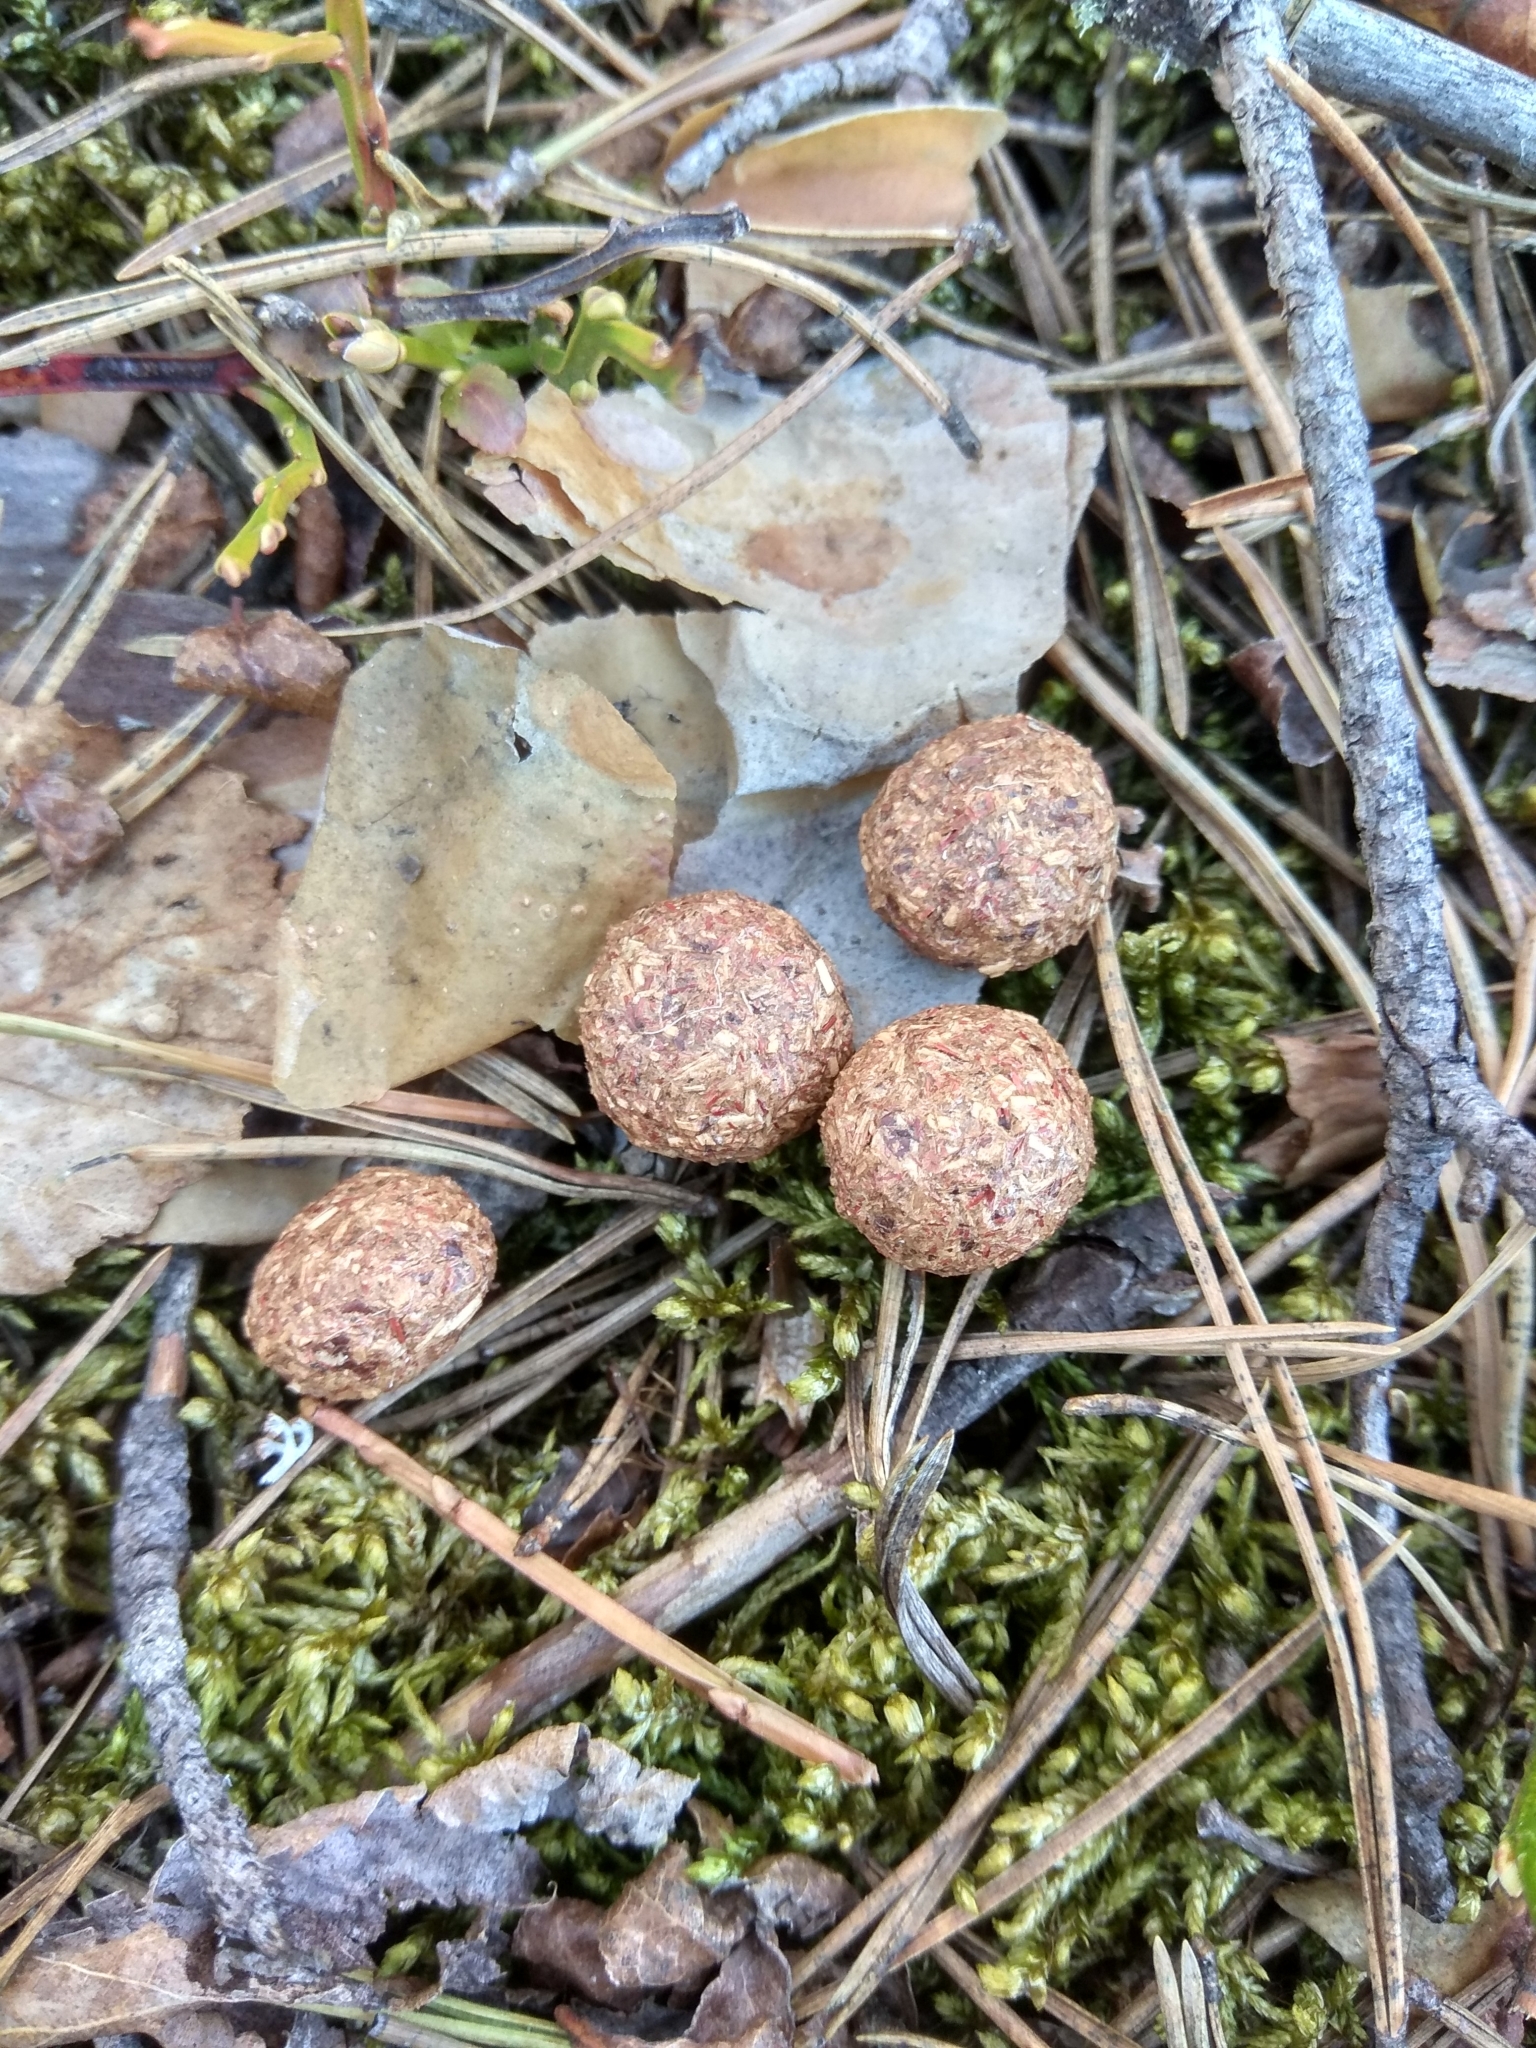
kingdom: Animalia
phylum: Chordata
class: Mammalia
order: Lagomorpha
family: Leporidae
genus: Lepus
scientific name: Lepus timidus
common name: Mountain hare
